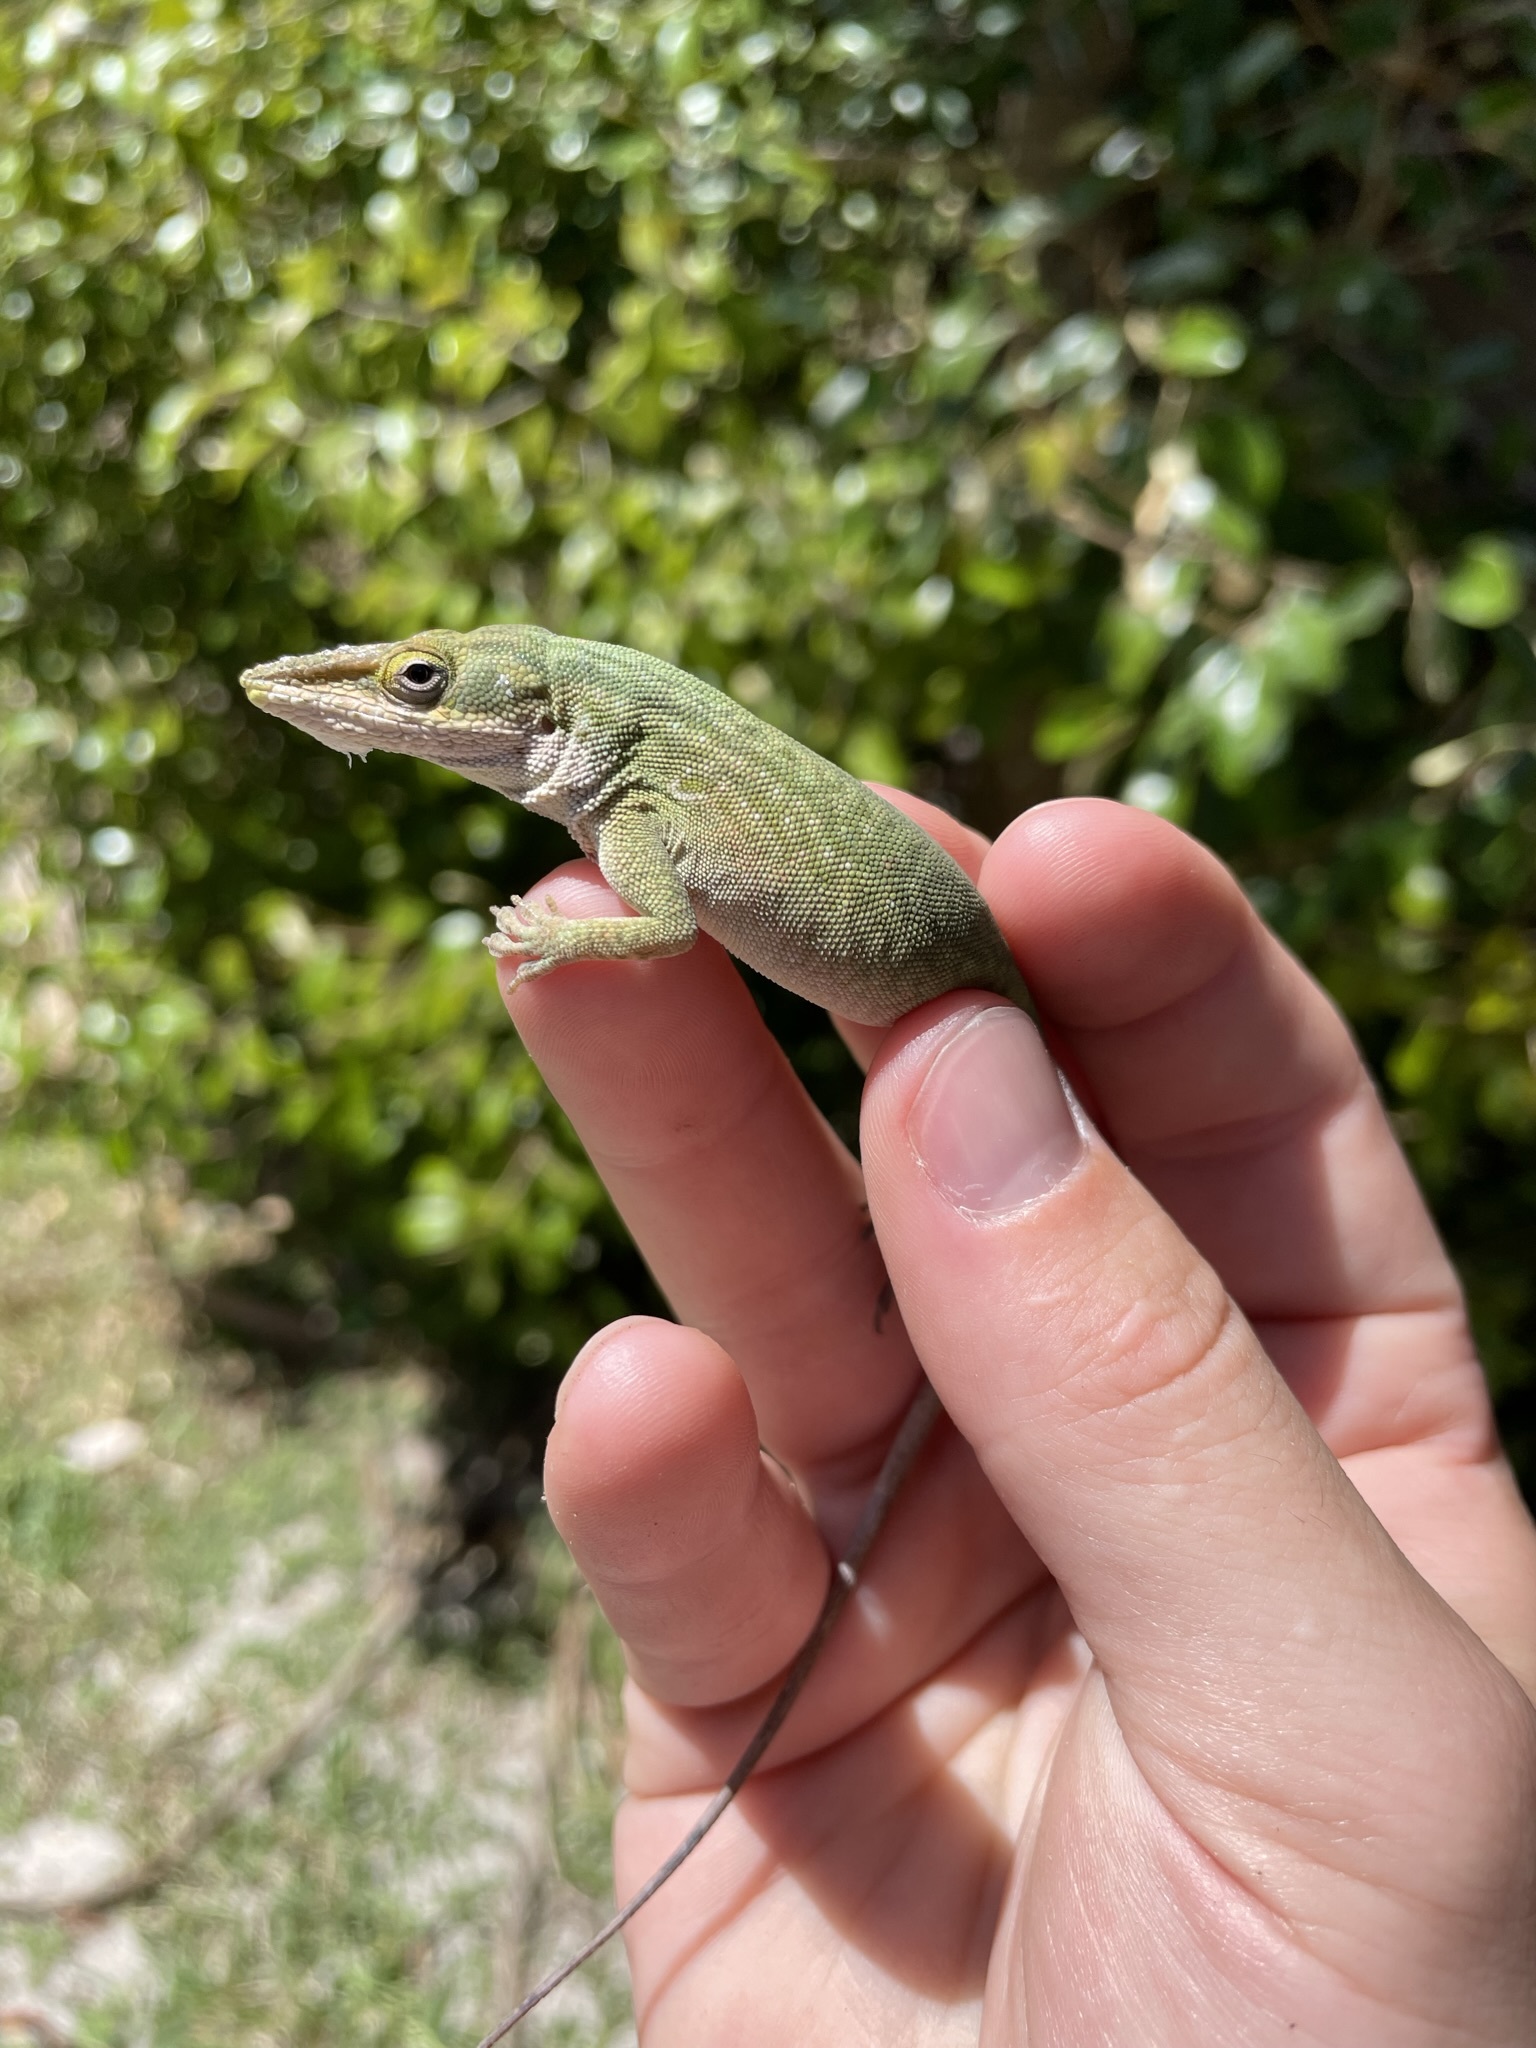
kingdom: Animalia
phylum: Chordata
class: Squamata
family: Dactyloidae
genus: Anolis
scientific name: Anolis carolinensis
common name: Green anole
